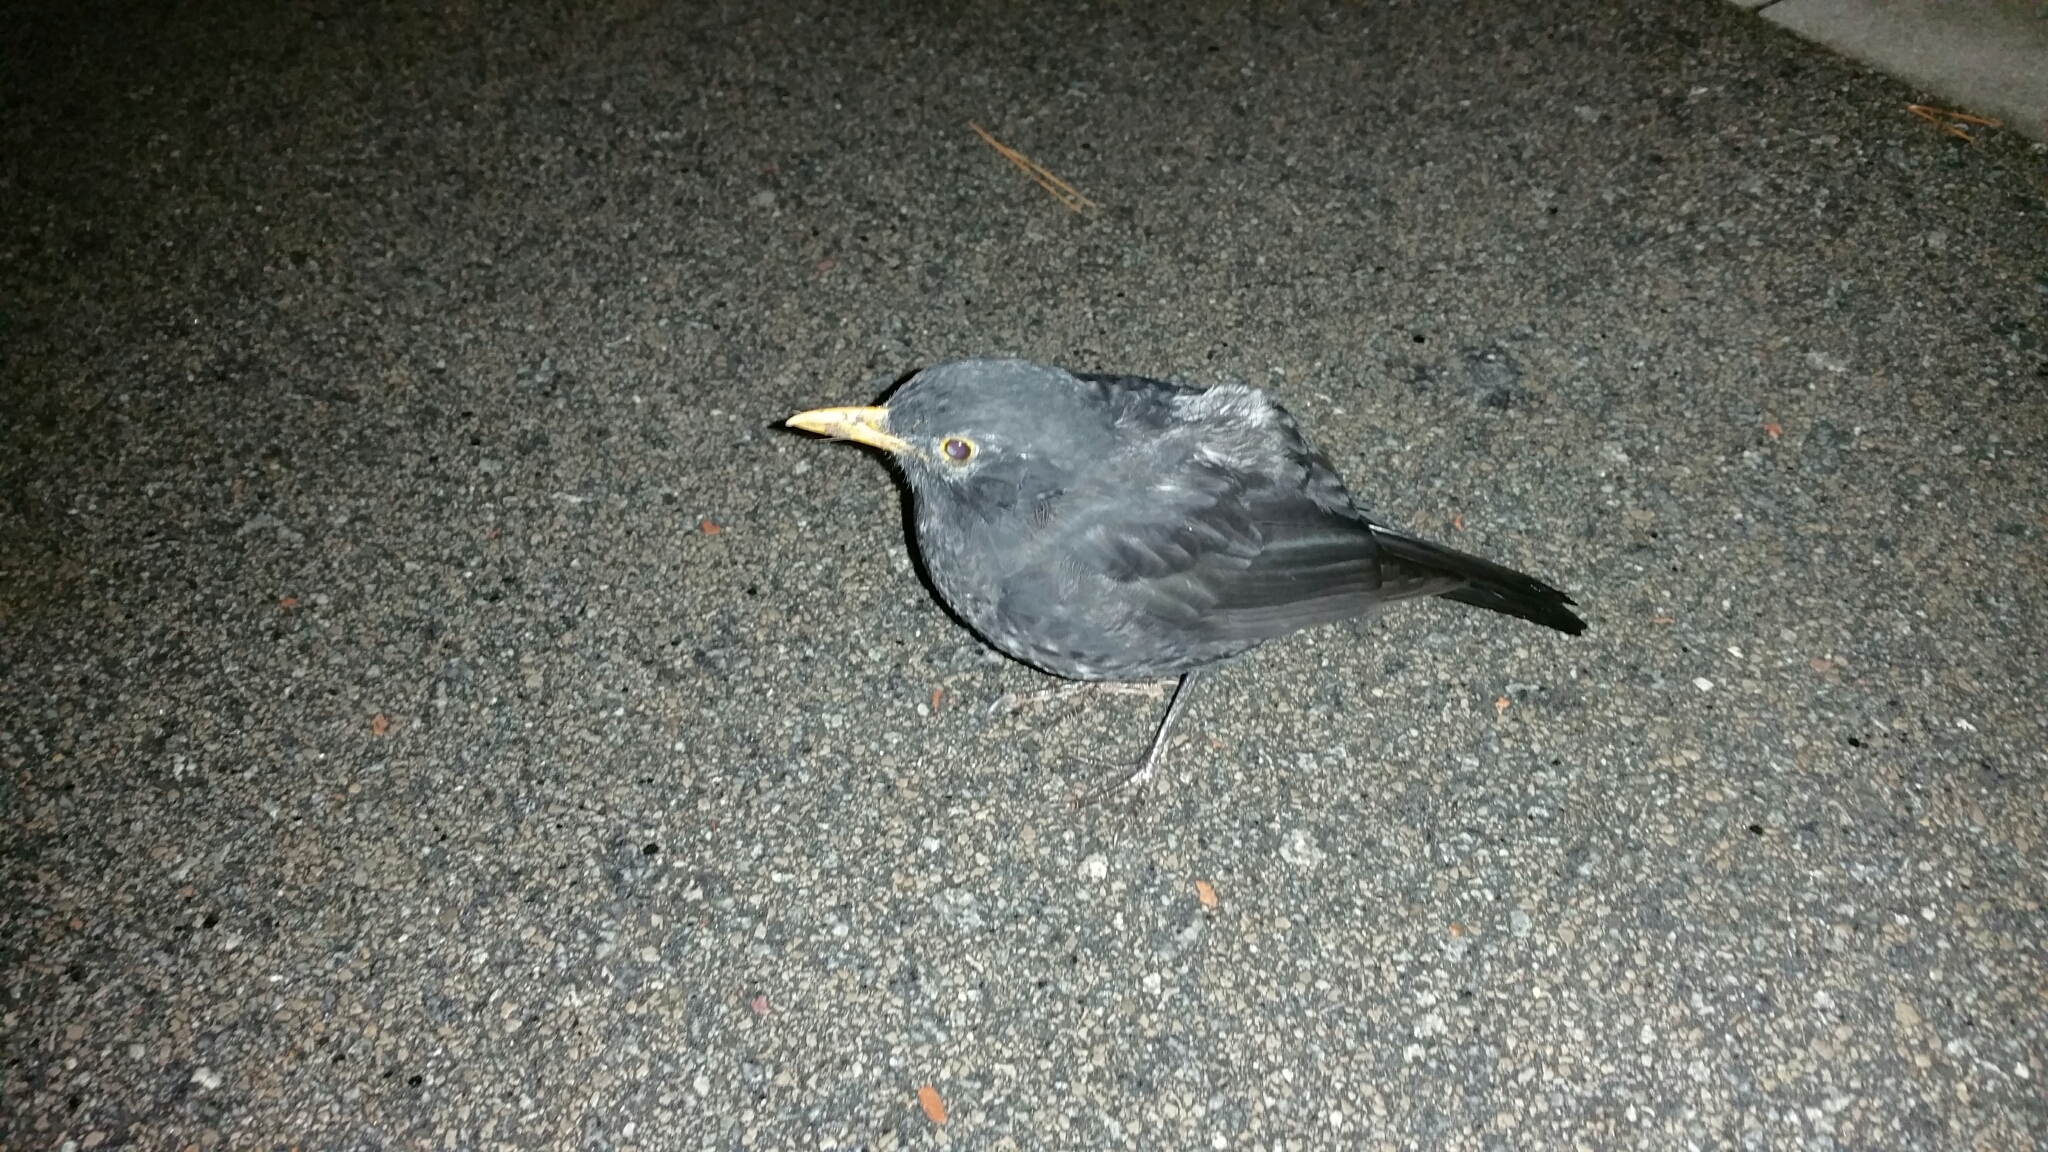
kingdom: Animalia
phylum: Chordata
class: Aves
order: Passeriformes
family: Turdidae
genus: Turdus
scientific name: Turdus merula
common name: Common blackbird
